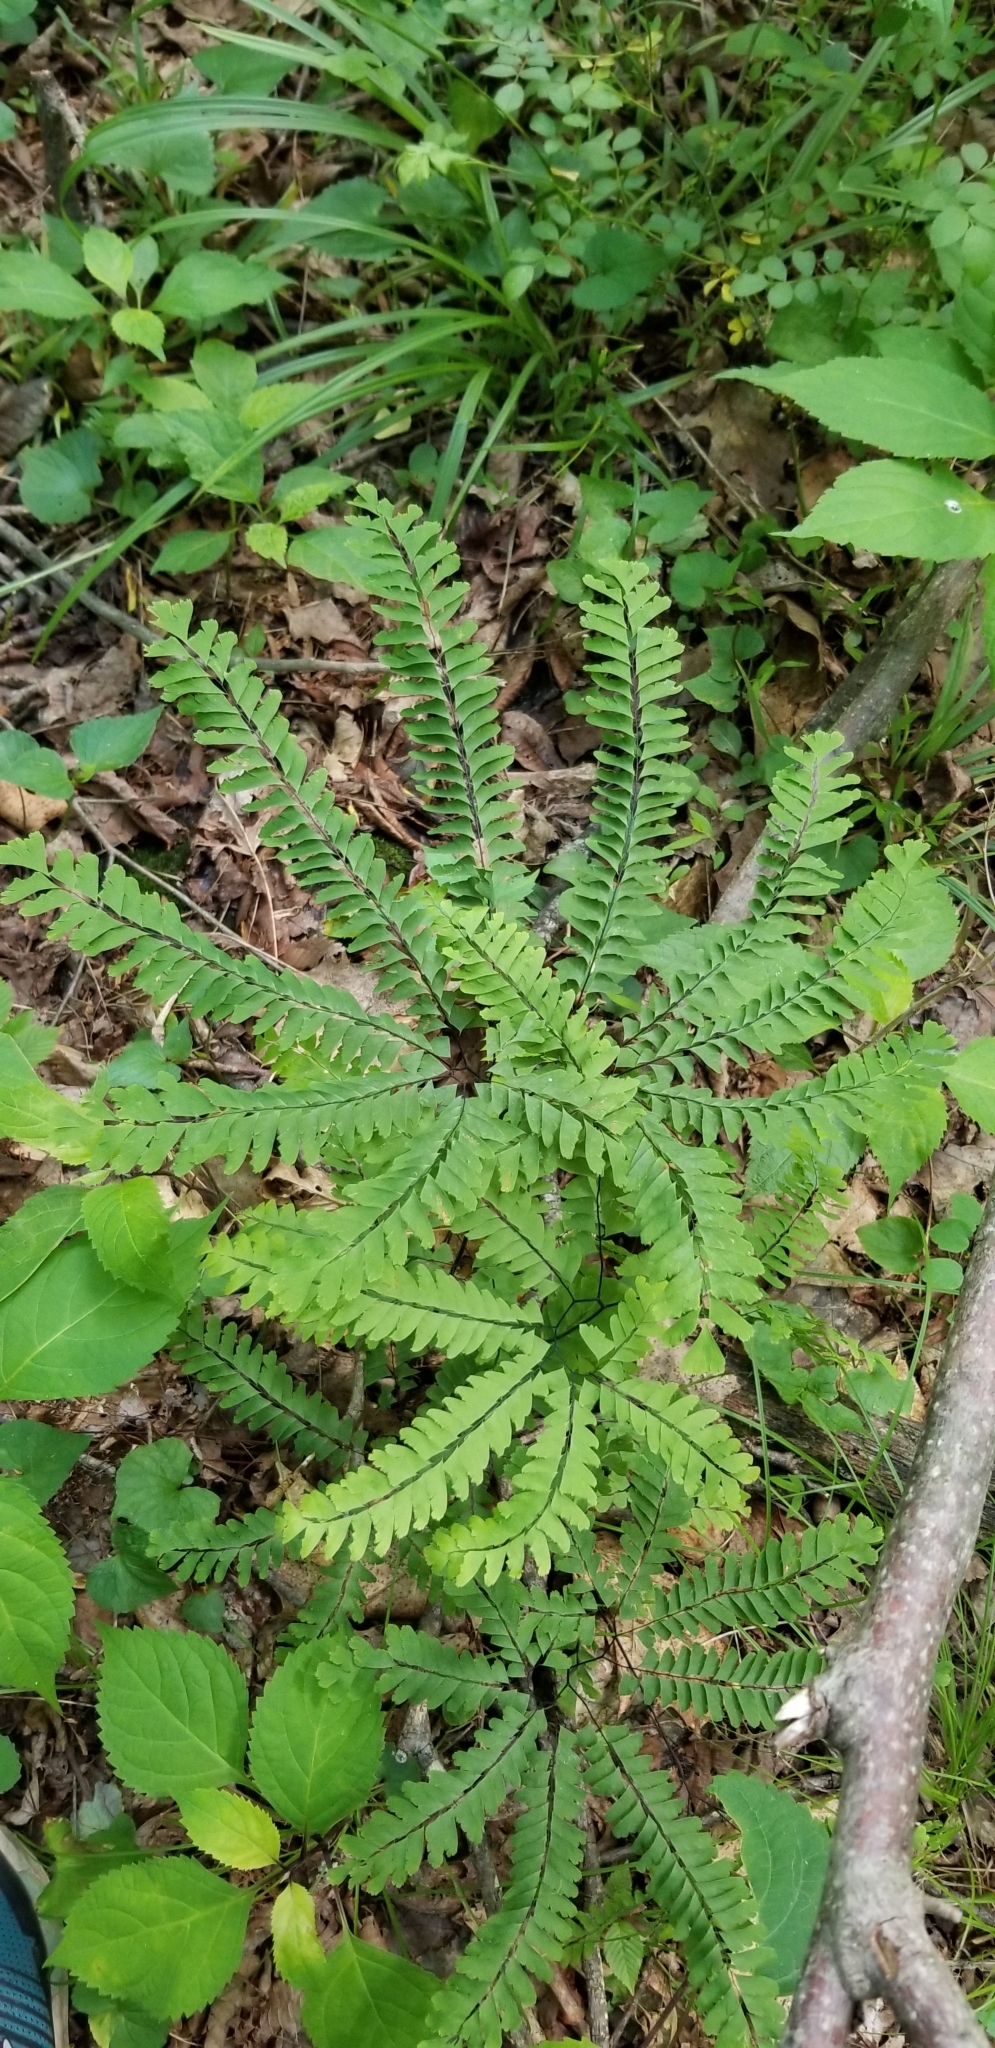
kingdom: Plantae
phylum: Tracheophyta
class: Polypodiopsida
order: Polypodiales
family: Pteridaceae
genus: Adiantum
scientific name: Adiantum pedatum
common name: Five-finger fern
